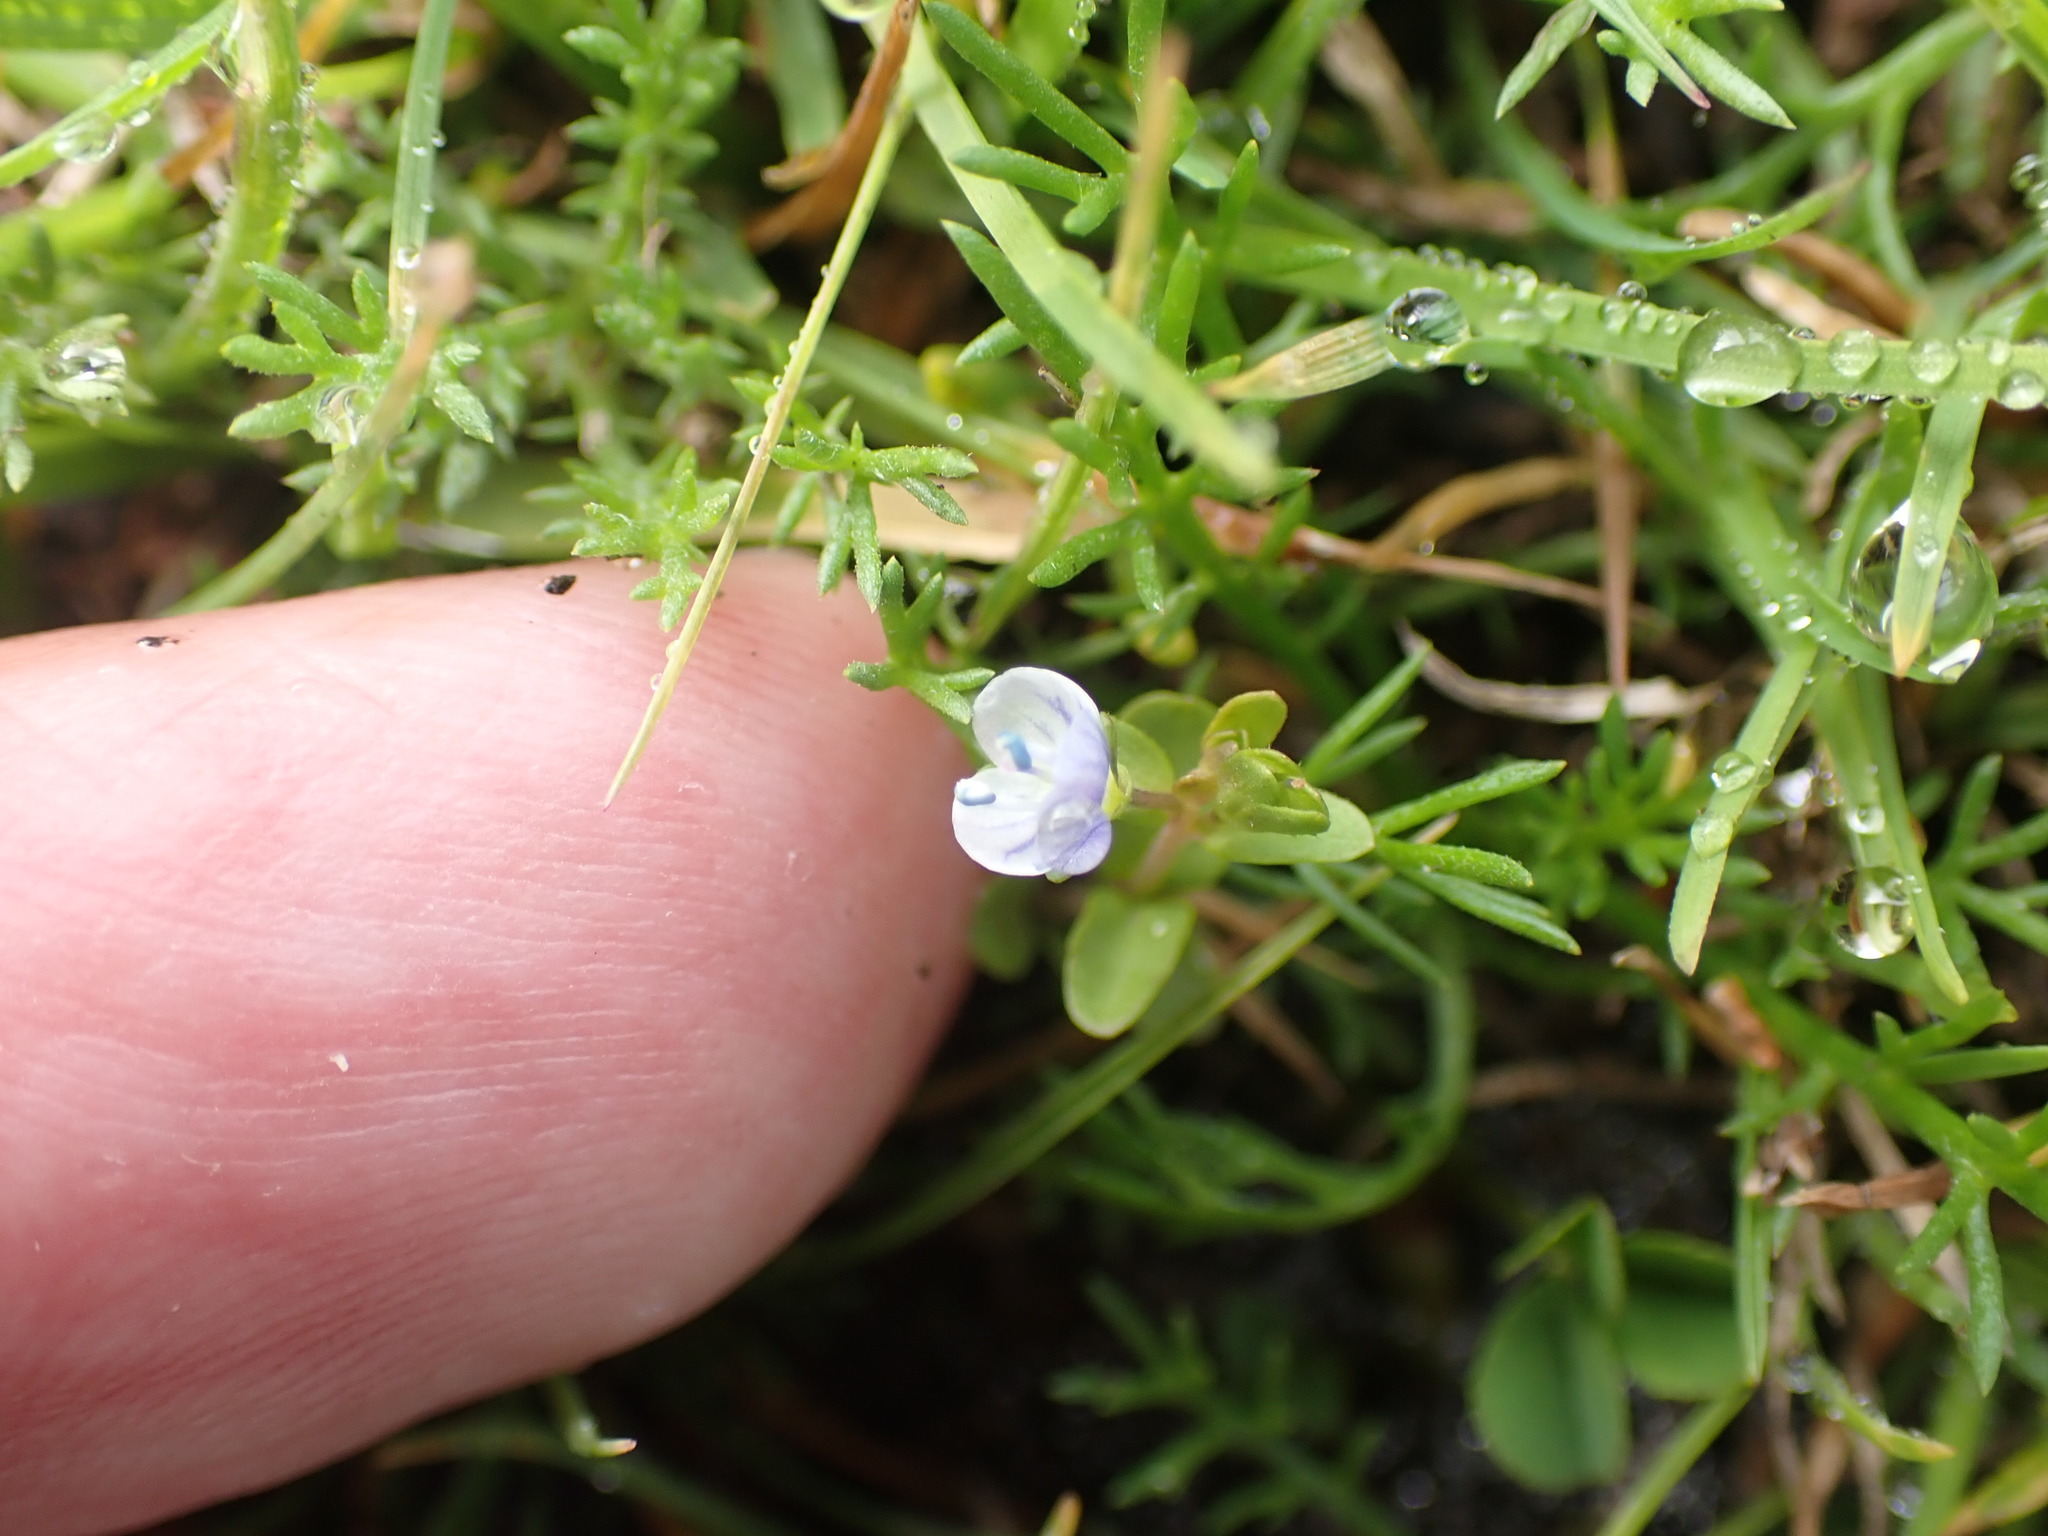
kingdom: Plantae
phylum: Tracheophyta
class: Magnoliopsida
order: Lamiales
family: Plantaginaceae
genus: Veronica
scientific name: Veronica serpyllifolia
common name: Thyme-leaved speedwell
